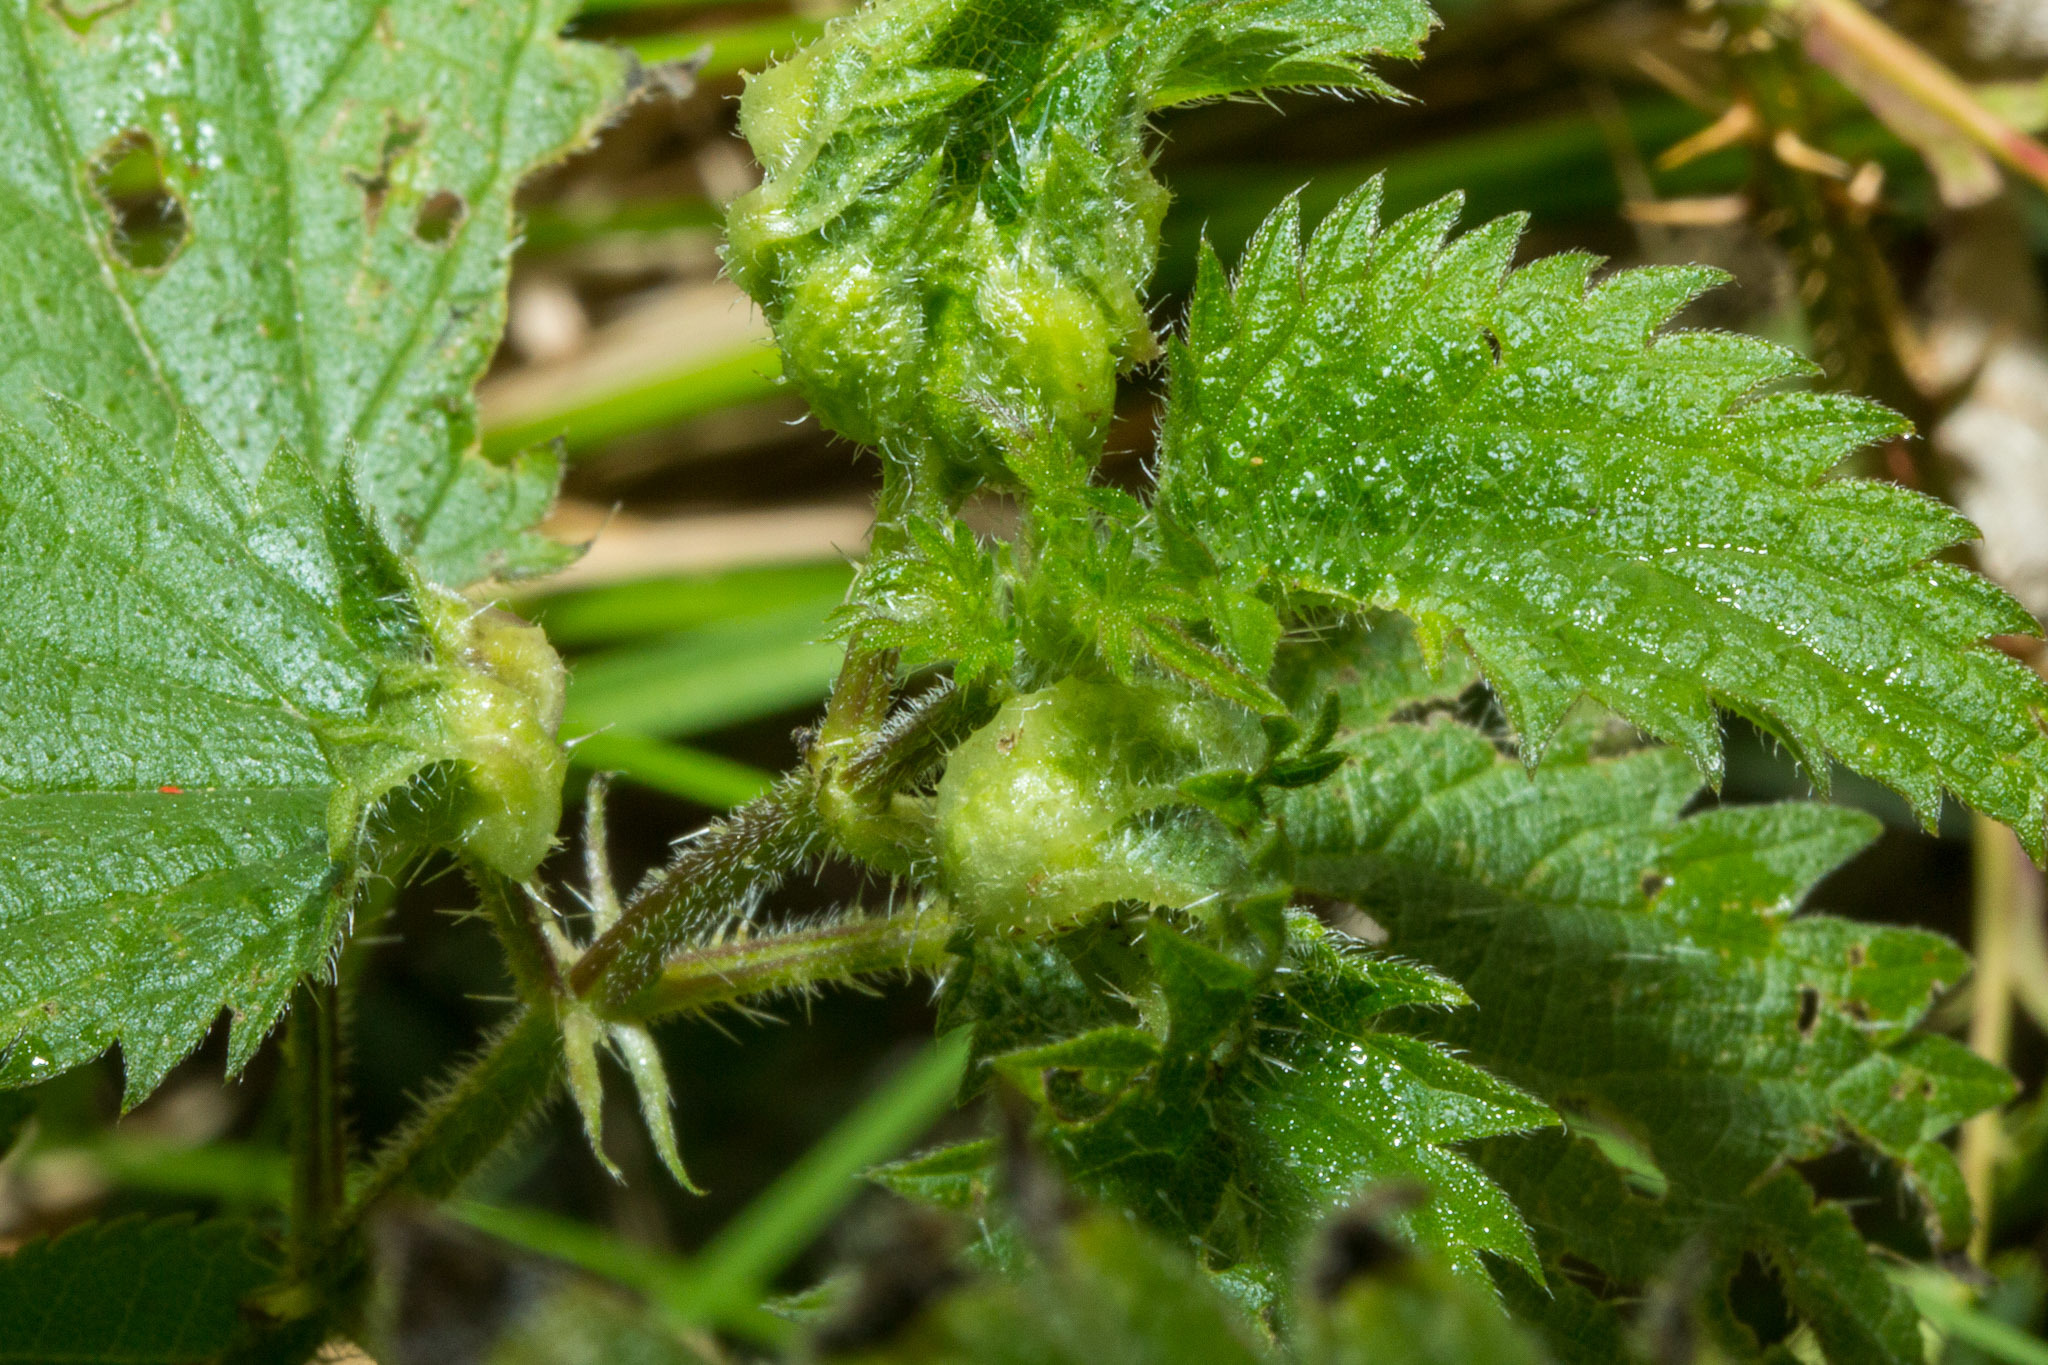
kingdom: Animalia
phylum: Arthropoda
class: Insecta
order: Diptera
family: Cecidomyiidae
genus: Dasineura
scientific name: Dasineura urticae
